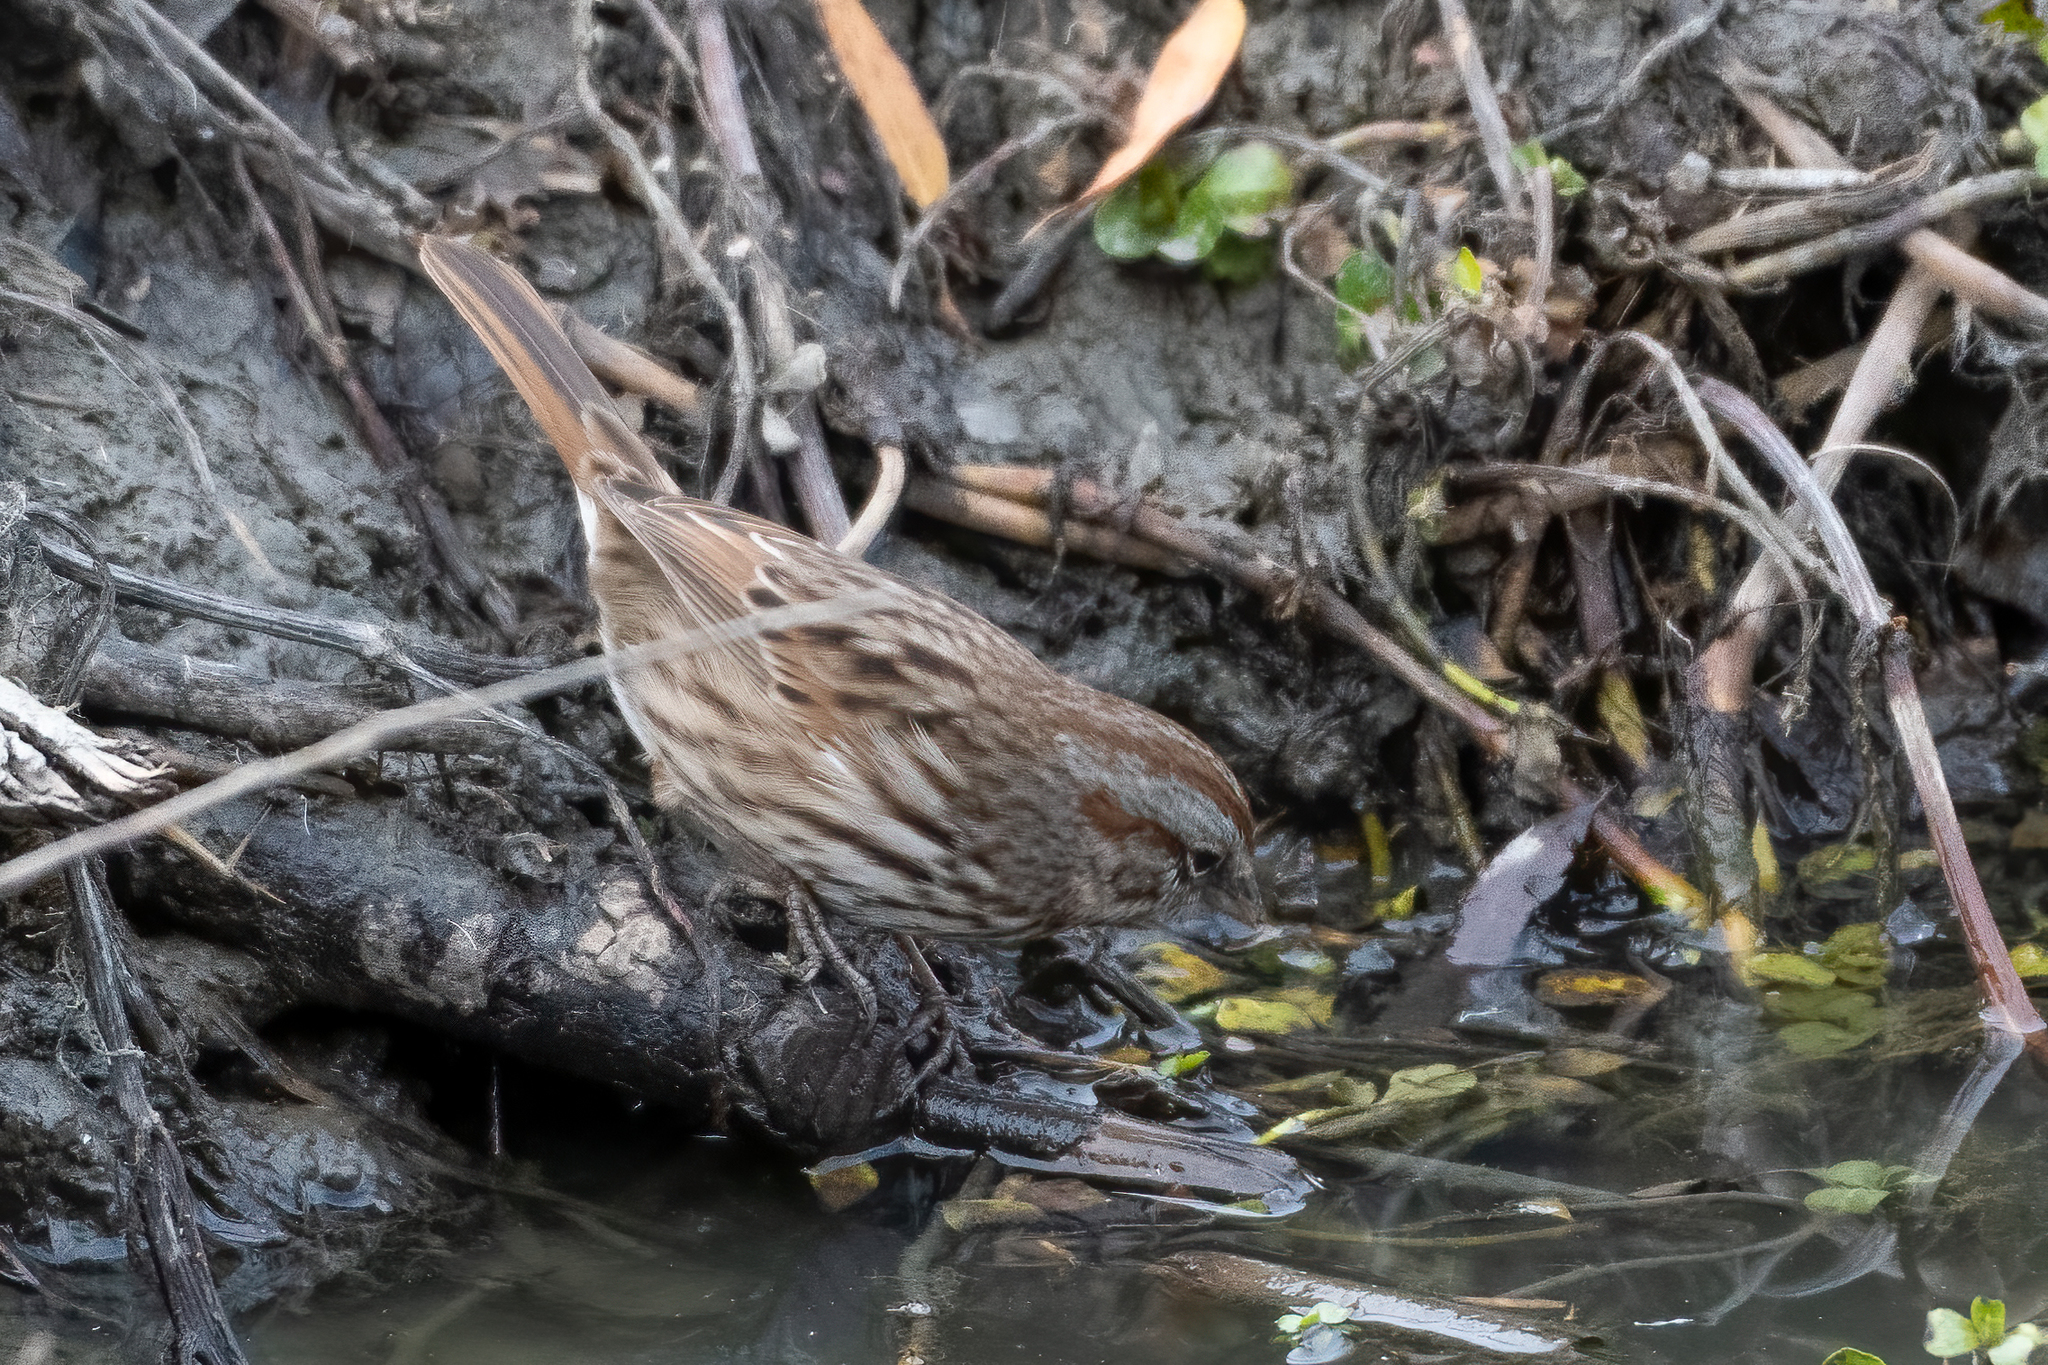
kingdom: Animalia
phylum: Chordata
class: Aves
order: Passeriformes
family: Passerellidae
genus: Melospiza
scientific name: Melospiza melodia
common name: Song sparrow
